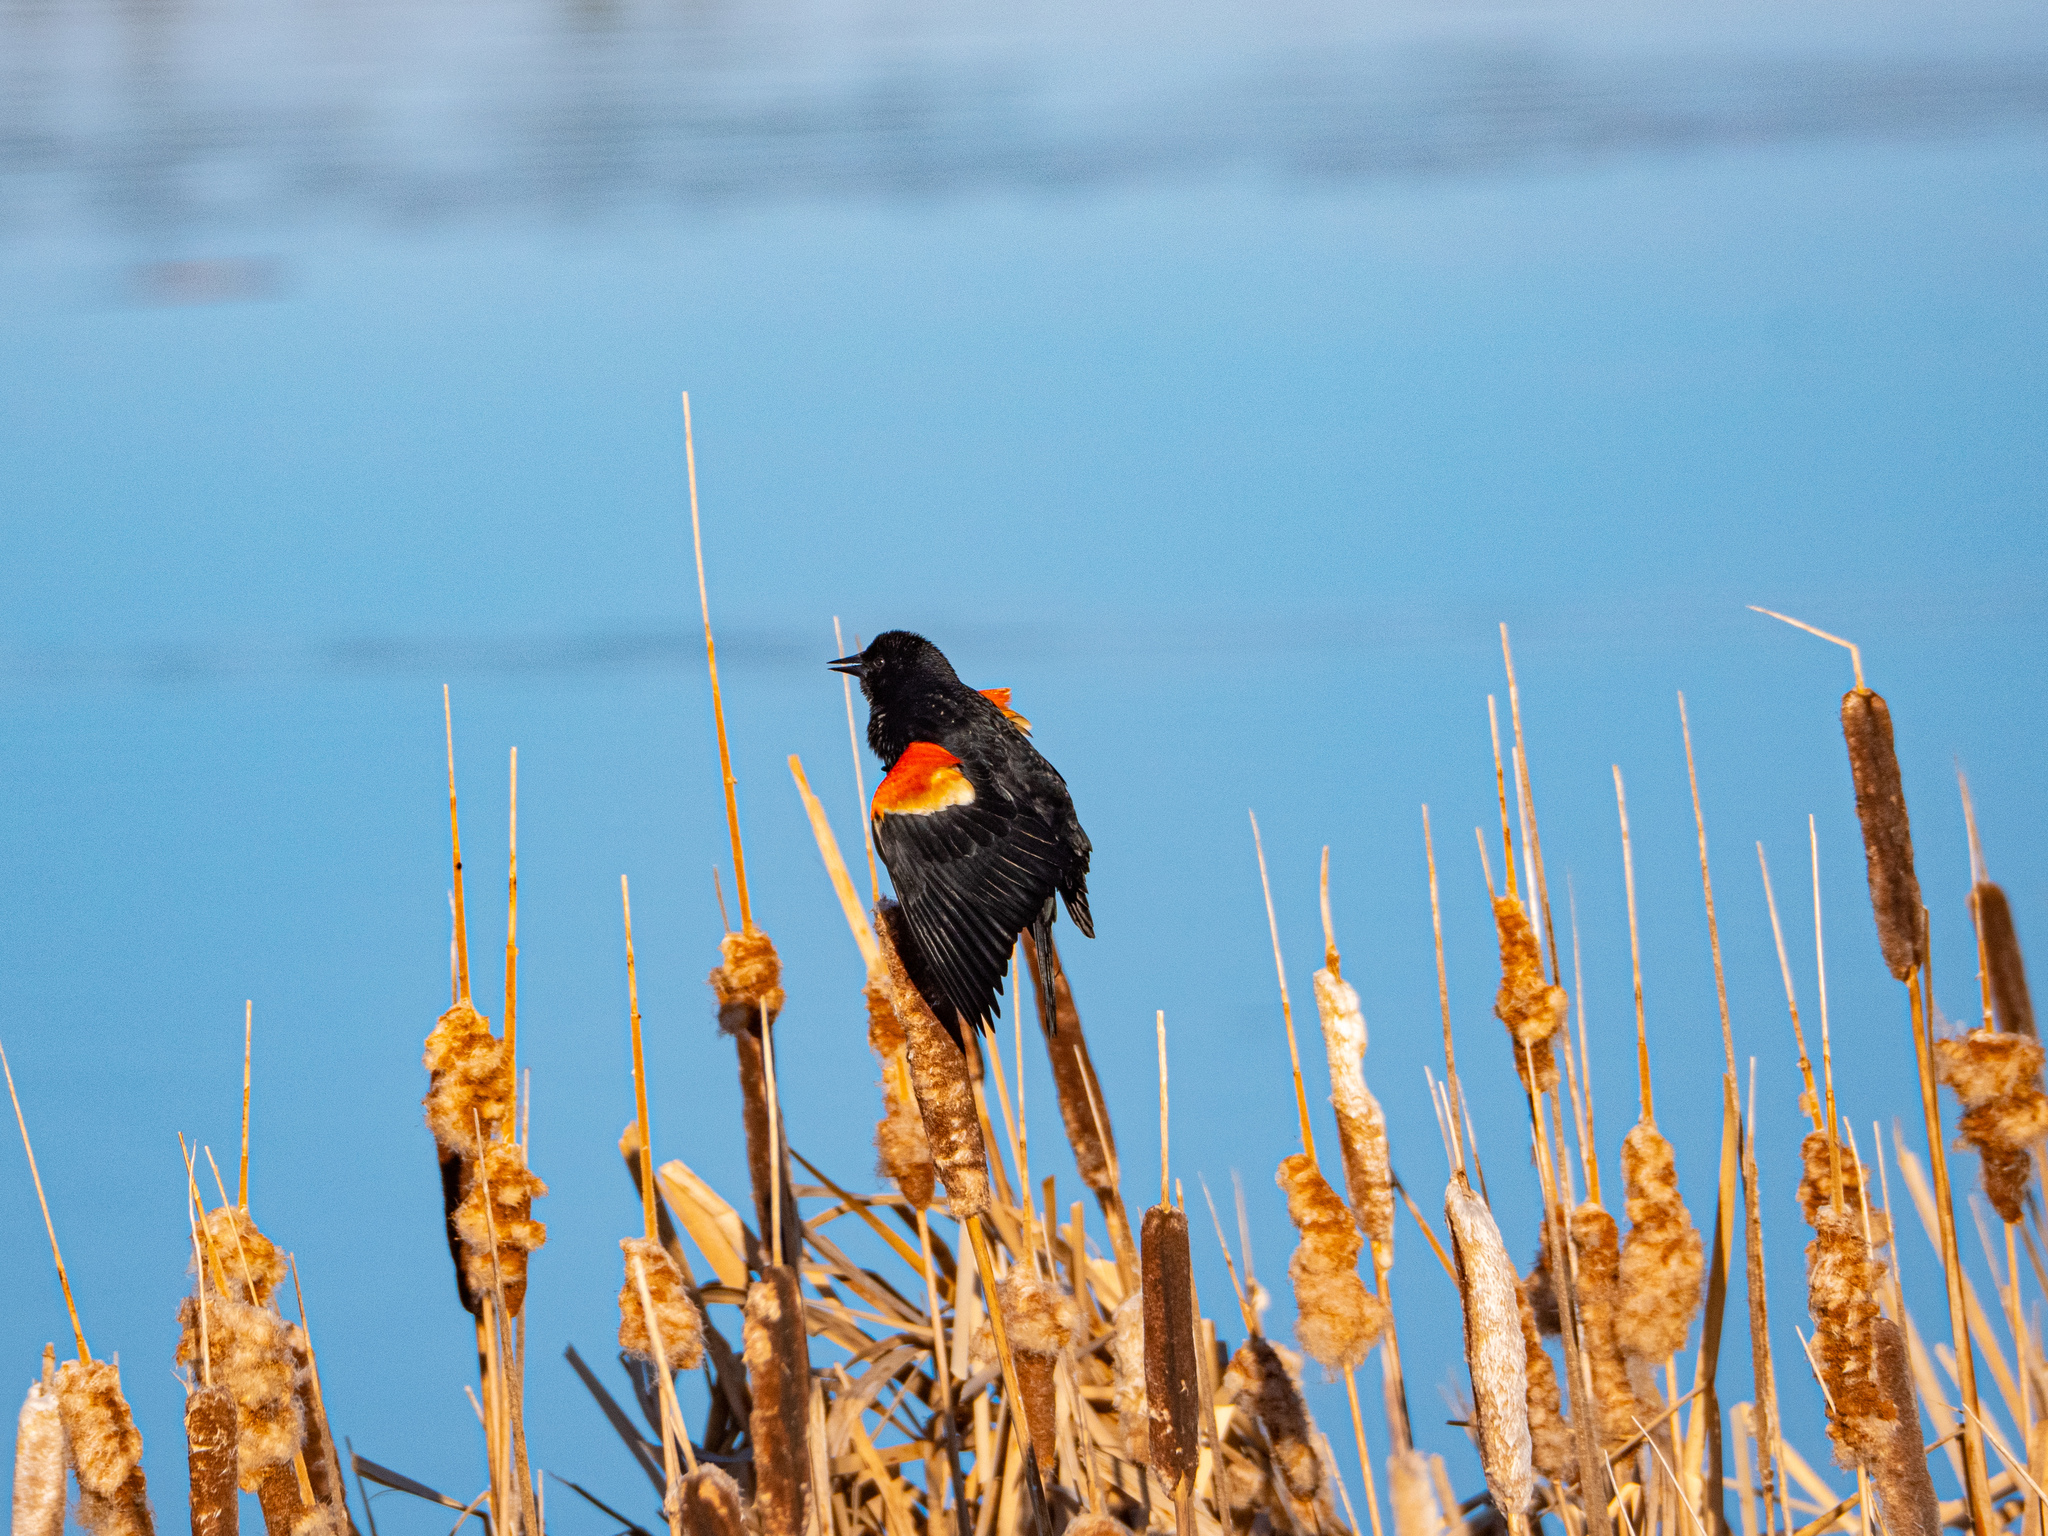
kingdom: Animalia
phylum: Chordata
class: Aves
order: Passeriformes
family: Icteridae
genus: Agelaius
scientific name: Agelaius phoeniceus
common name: Red-winged blackbird
